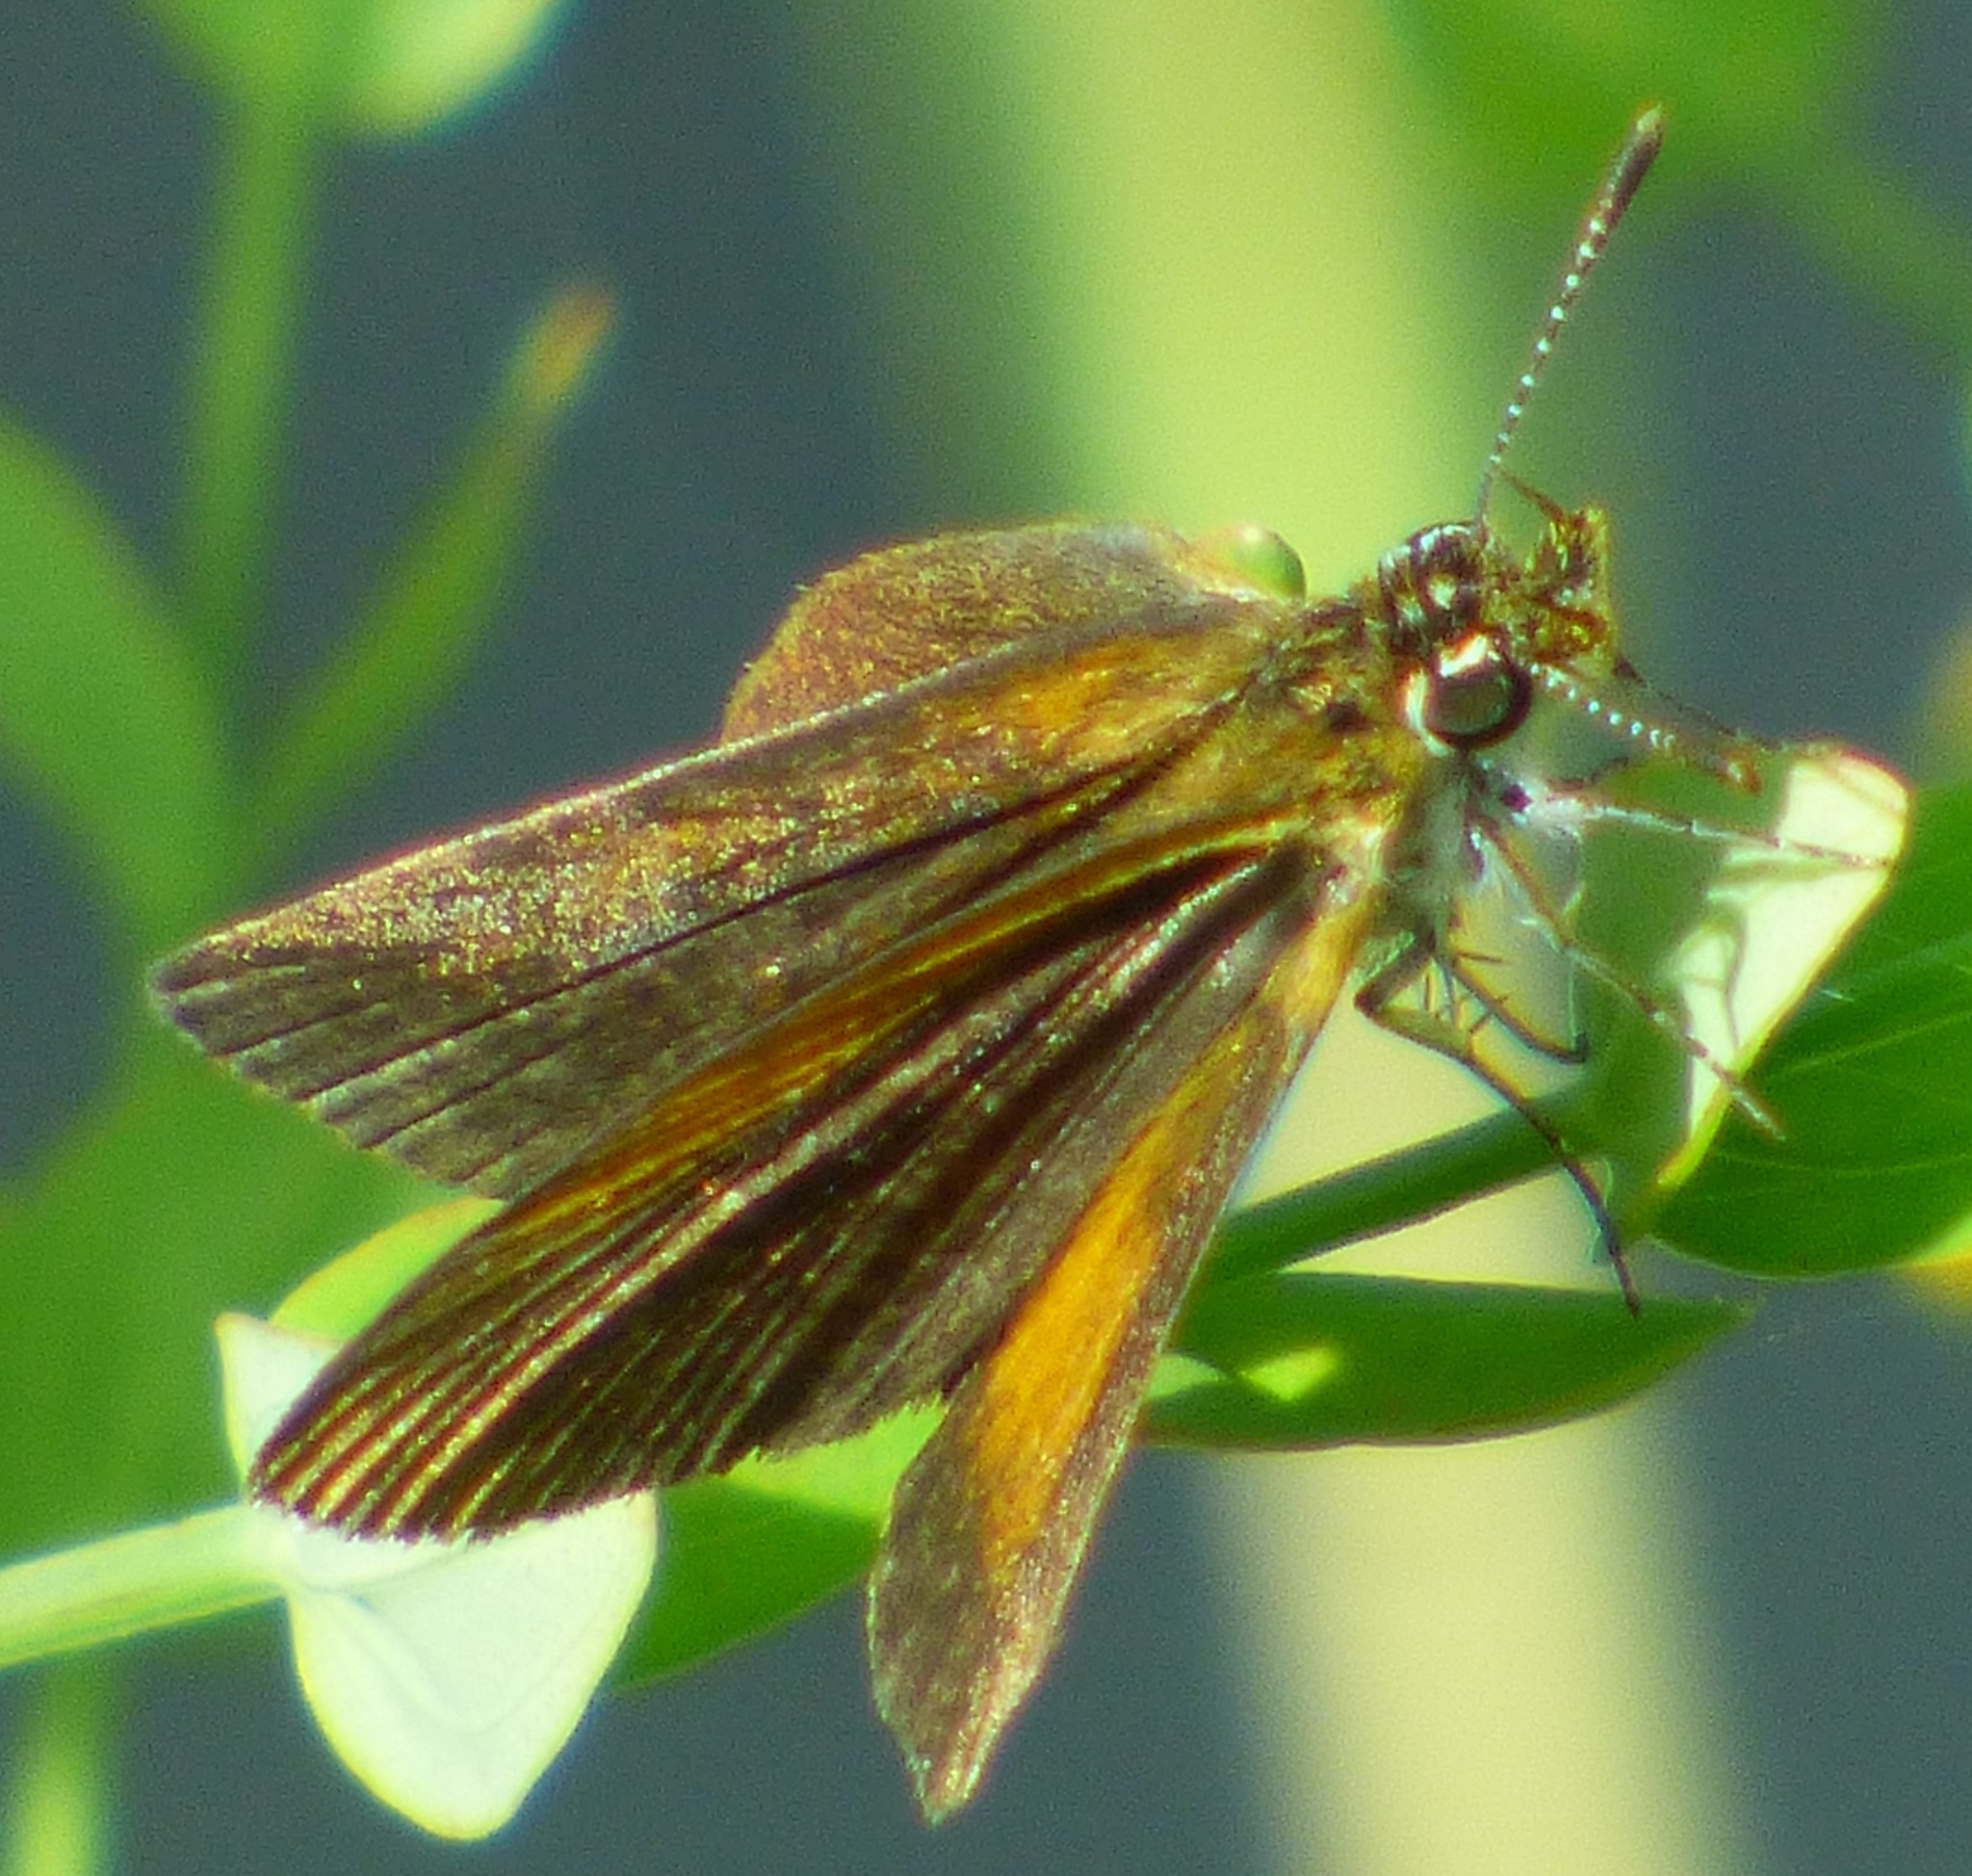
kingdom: Animalia
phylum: Arthropoda
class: Insecta
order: Lepidoptera
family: Hesperiidae
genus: Ancyloxypha
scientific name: Ancyloxypha numitor
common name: Least skipper
